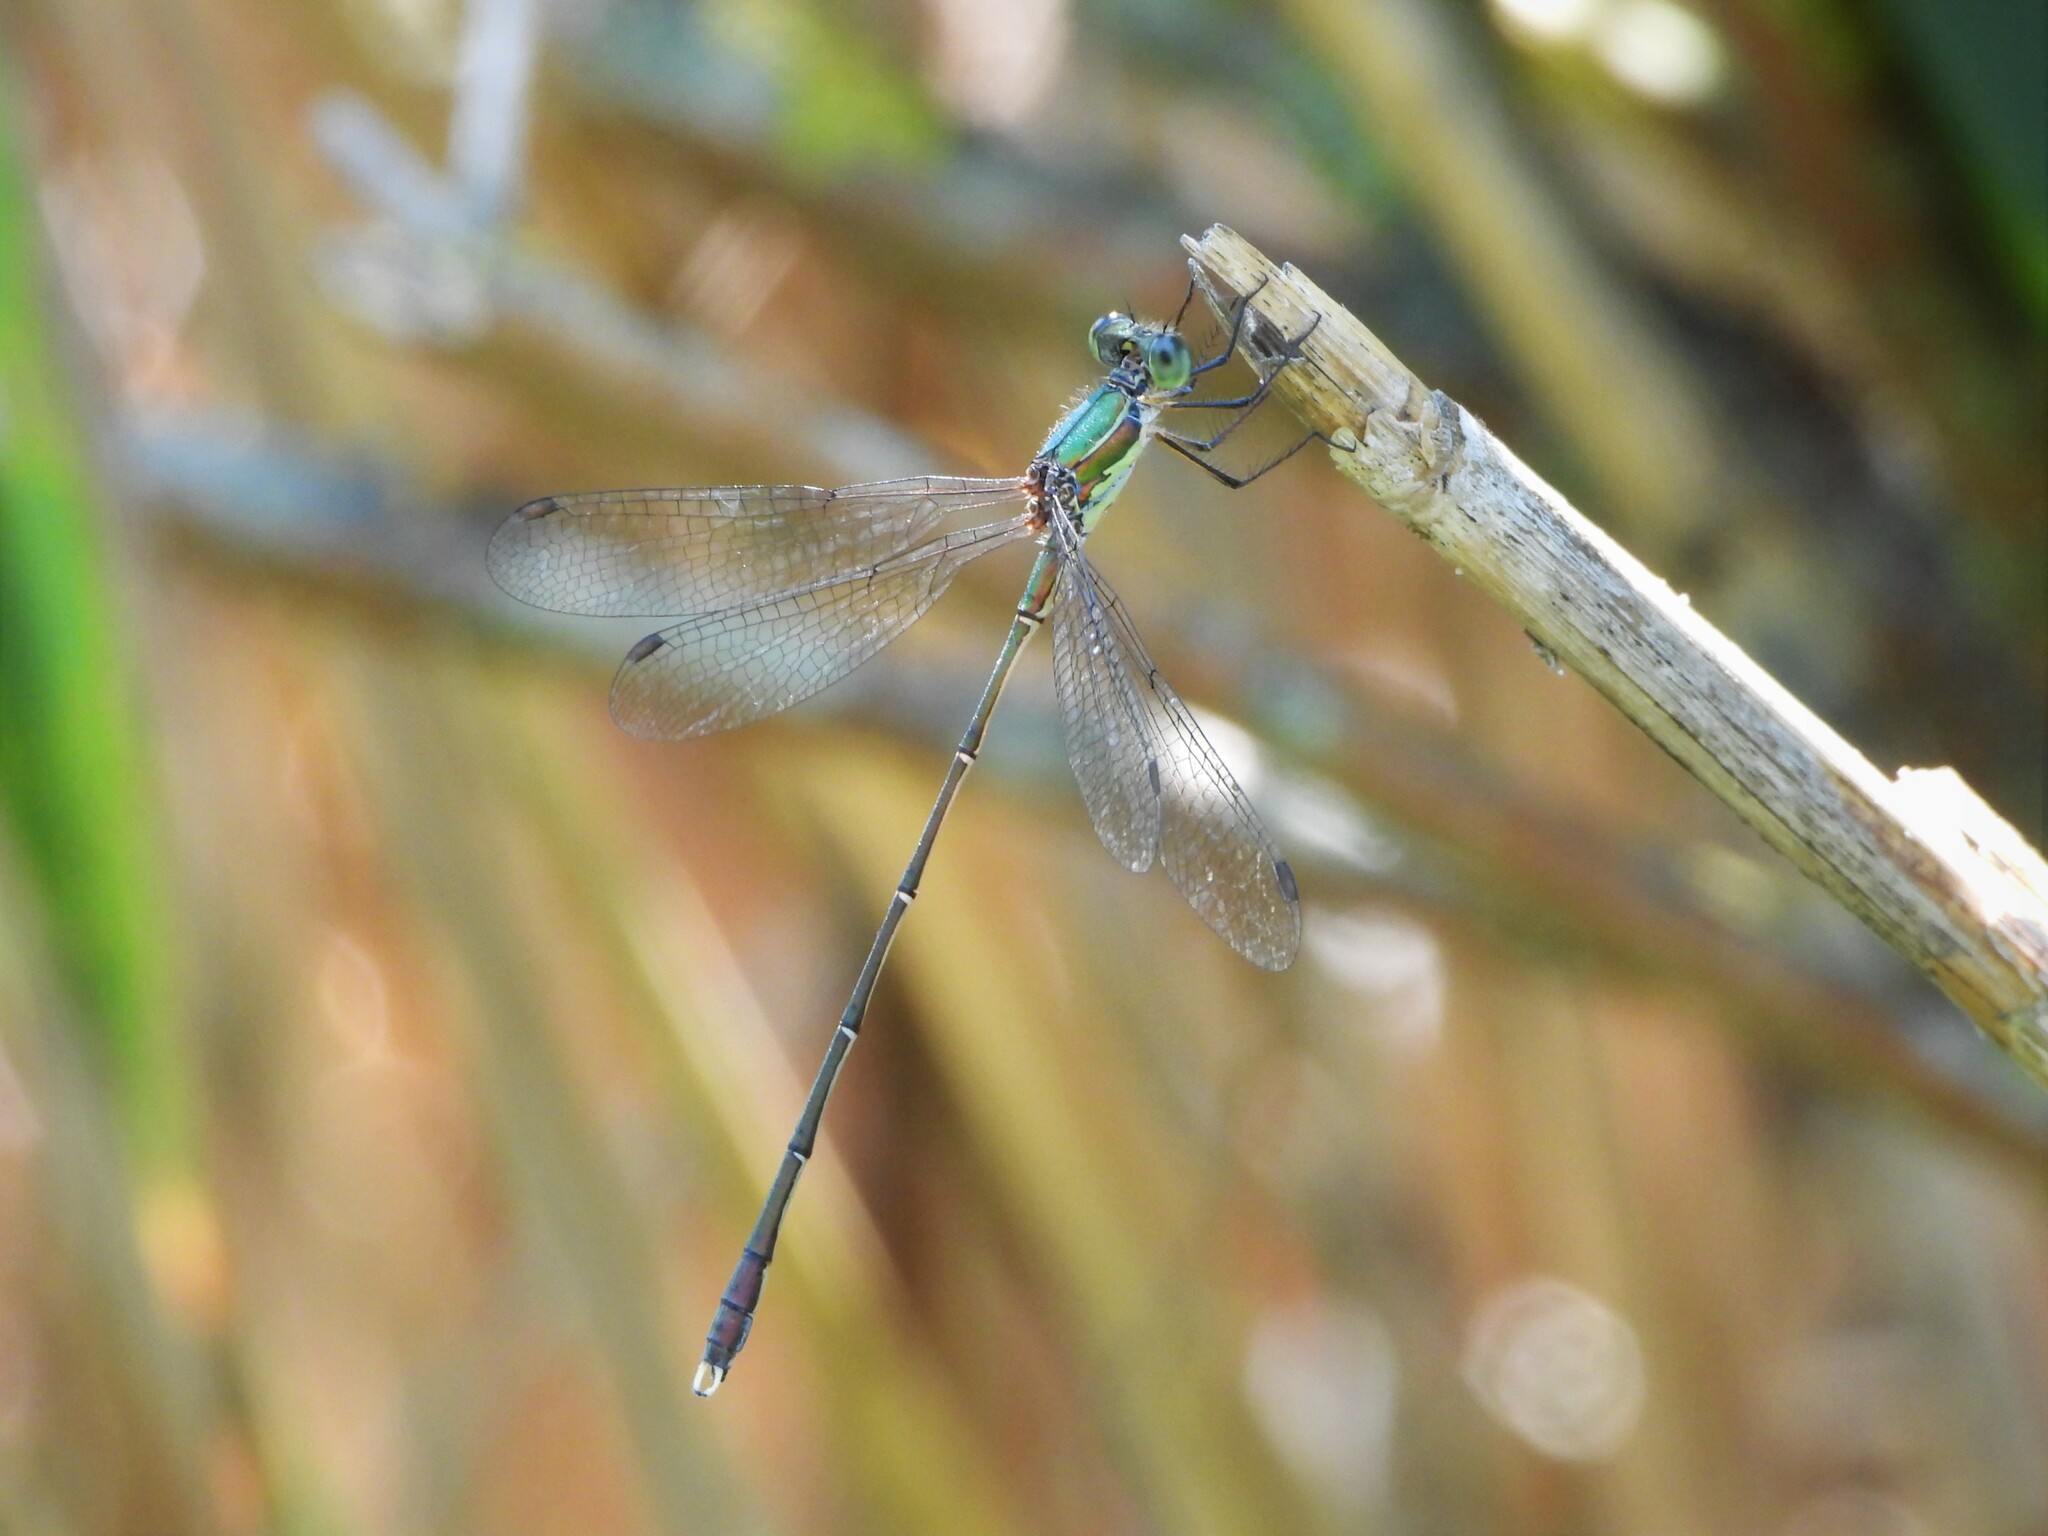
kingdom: Animalia
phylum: Arthropoda
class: Insecta
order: Odonata
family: Lestidae
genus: Chalcolestes
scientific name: Chalcolestes parvidens
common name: Eastern willow spreadwing
